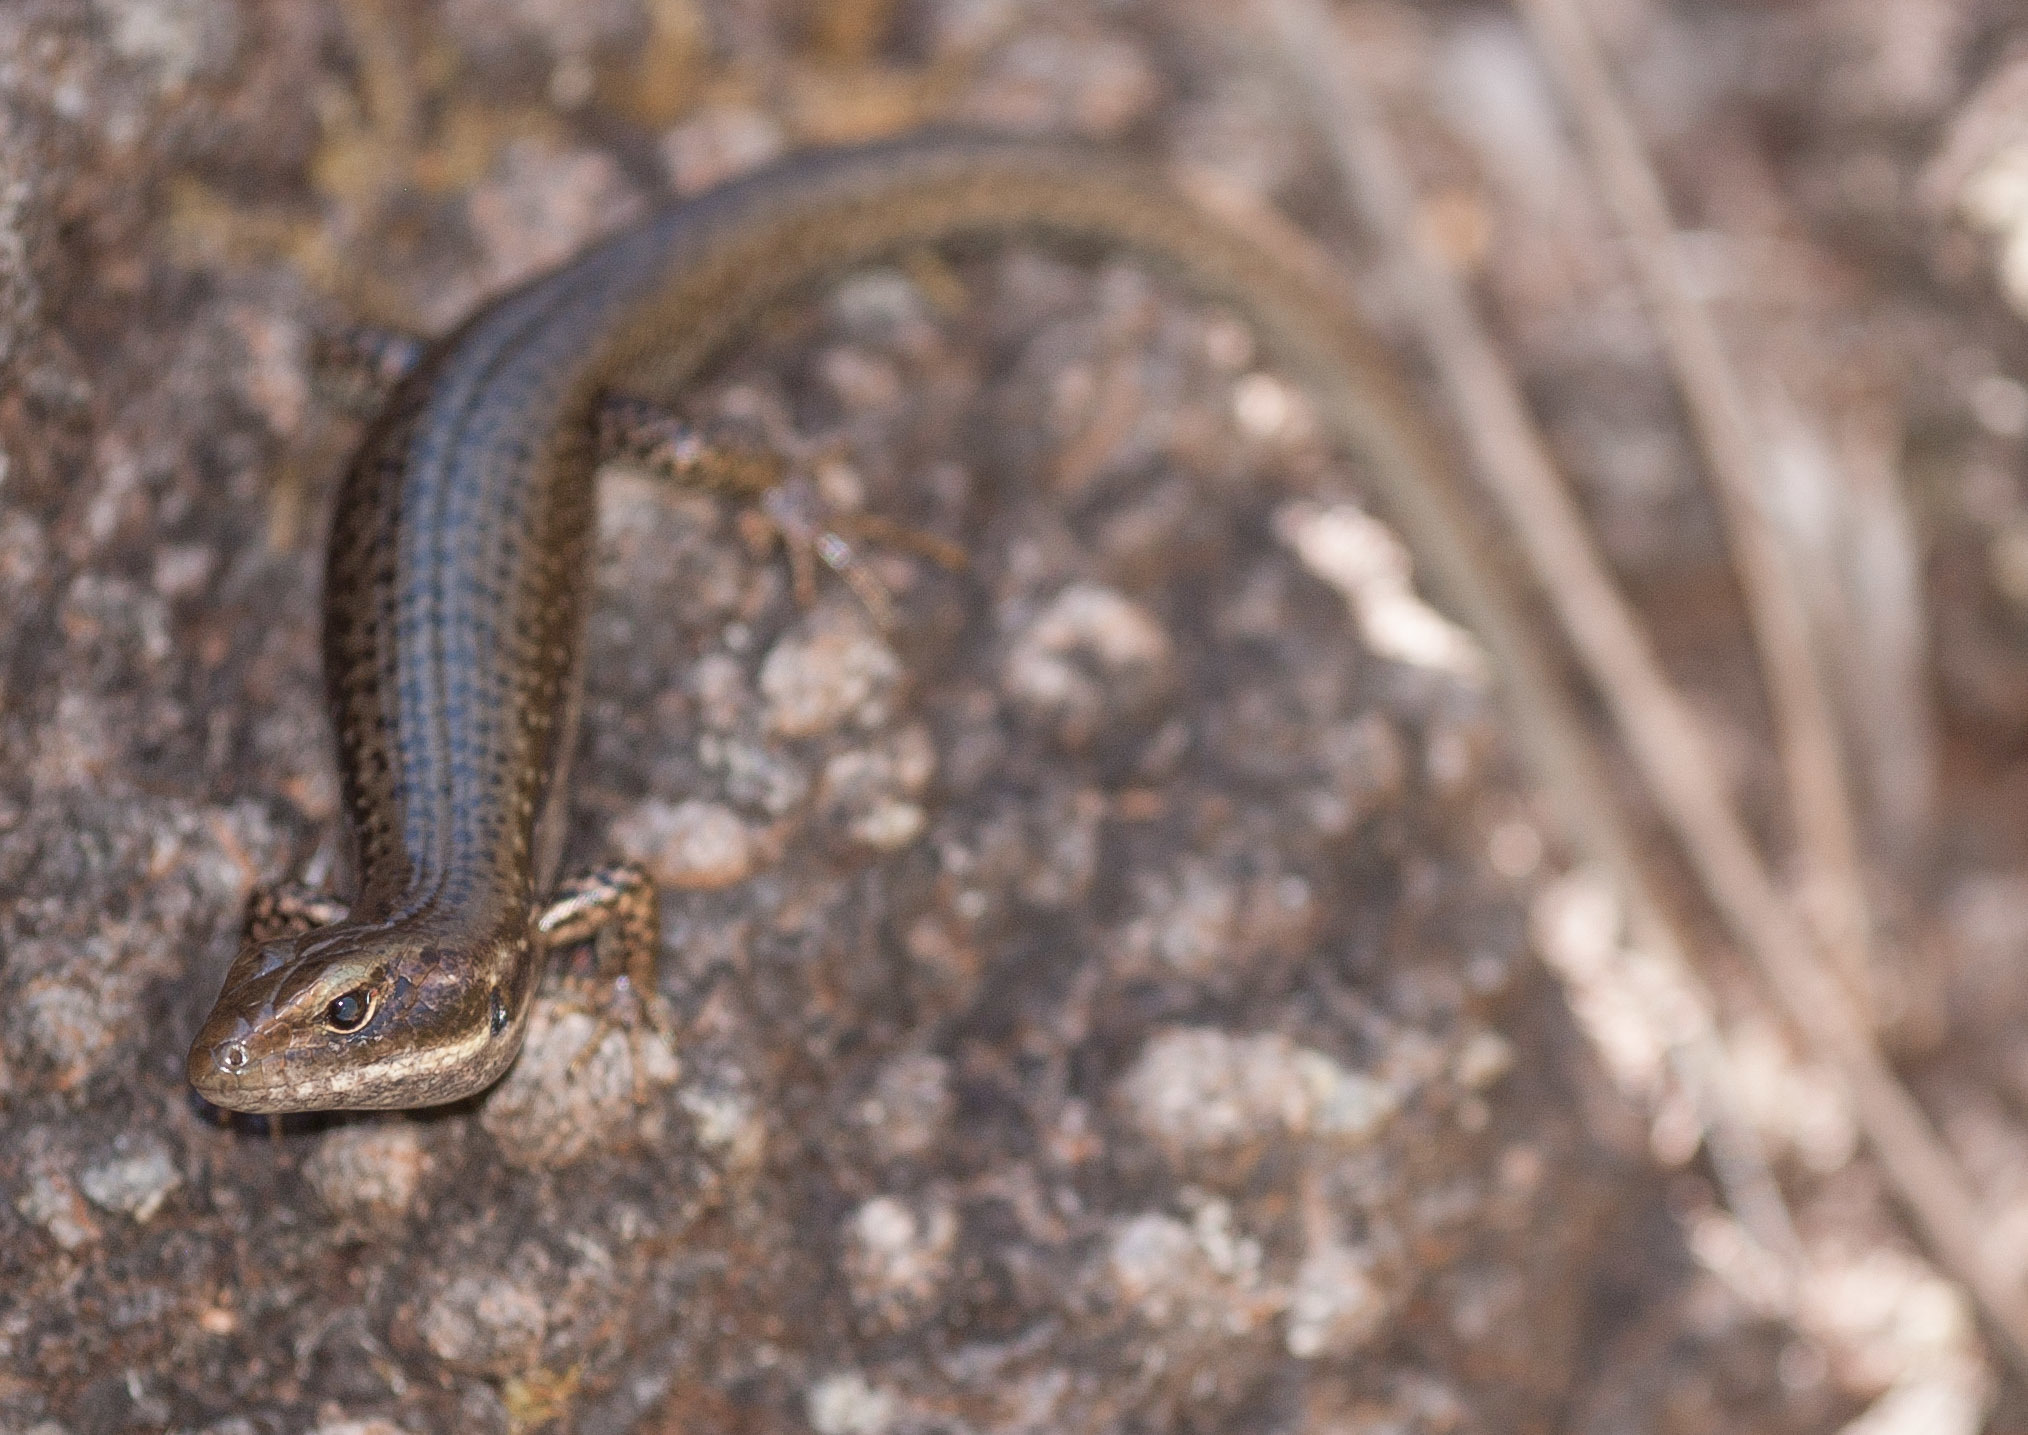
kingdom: Animalia
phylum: Chordata
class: Squamata
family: Scincidae
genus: Eulamprus
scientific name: Eulamprus tympanum
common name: Cool-temperate water-skink
